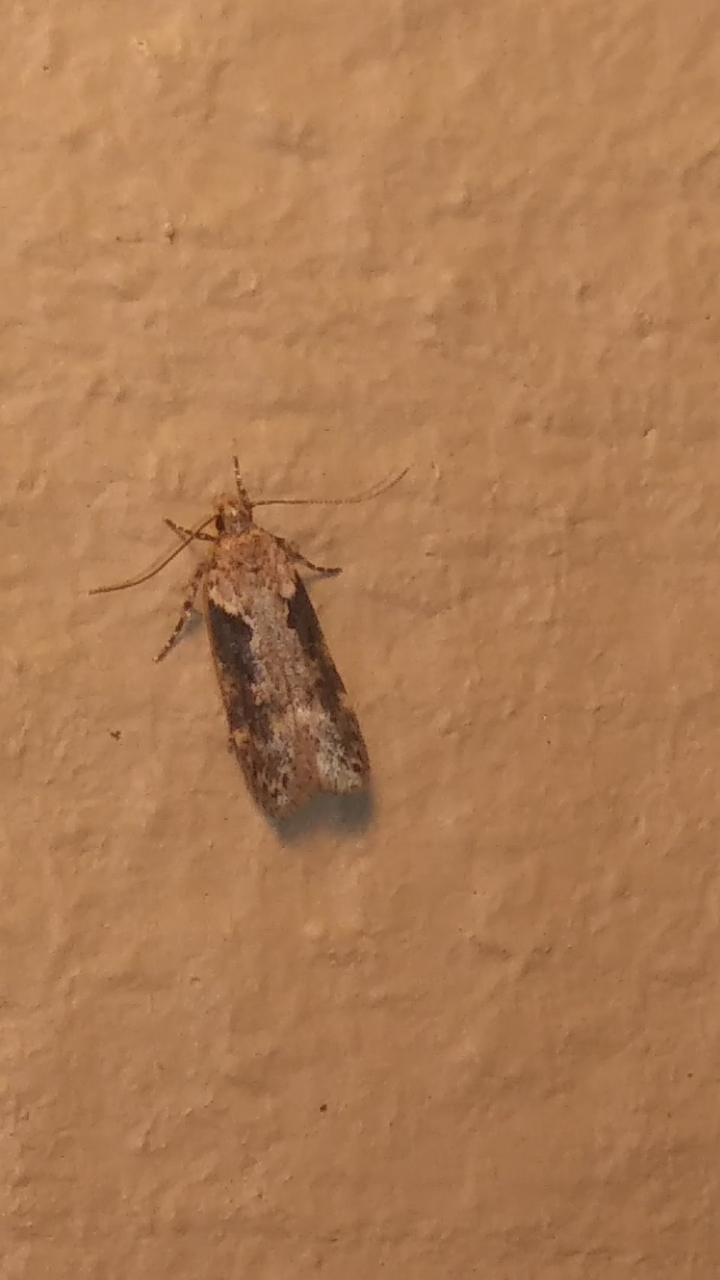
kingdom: Animalia
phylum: Arthropoda
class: Insecta
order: Lepidoptera
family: Gelechiidae
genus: Chionodes
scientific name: Chionodes mediofuscella
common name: Black-smudged chionodes moth
